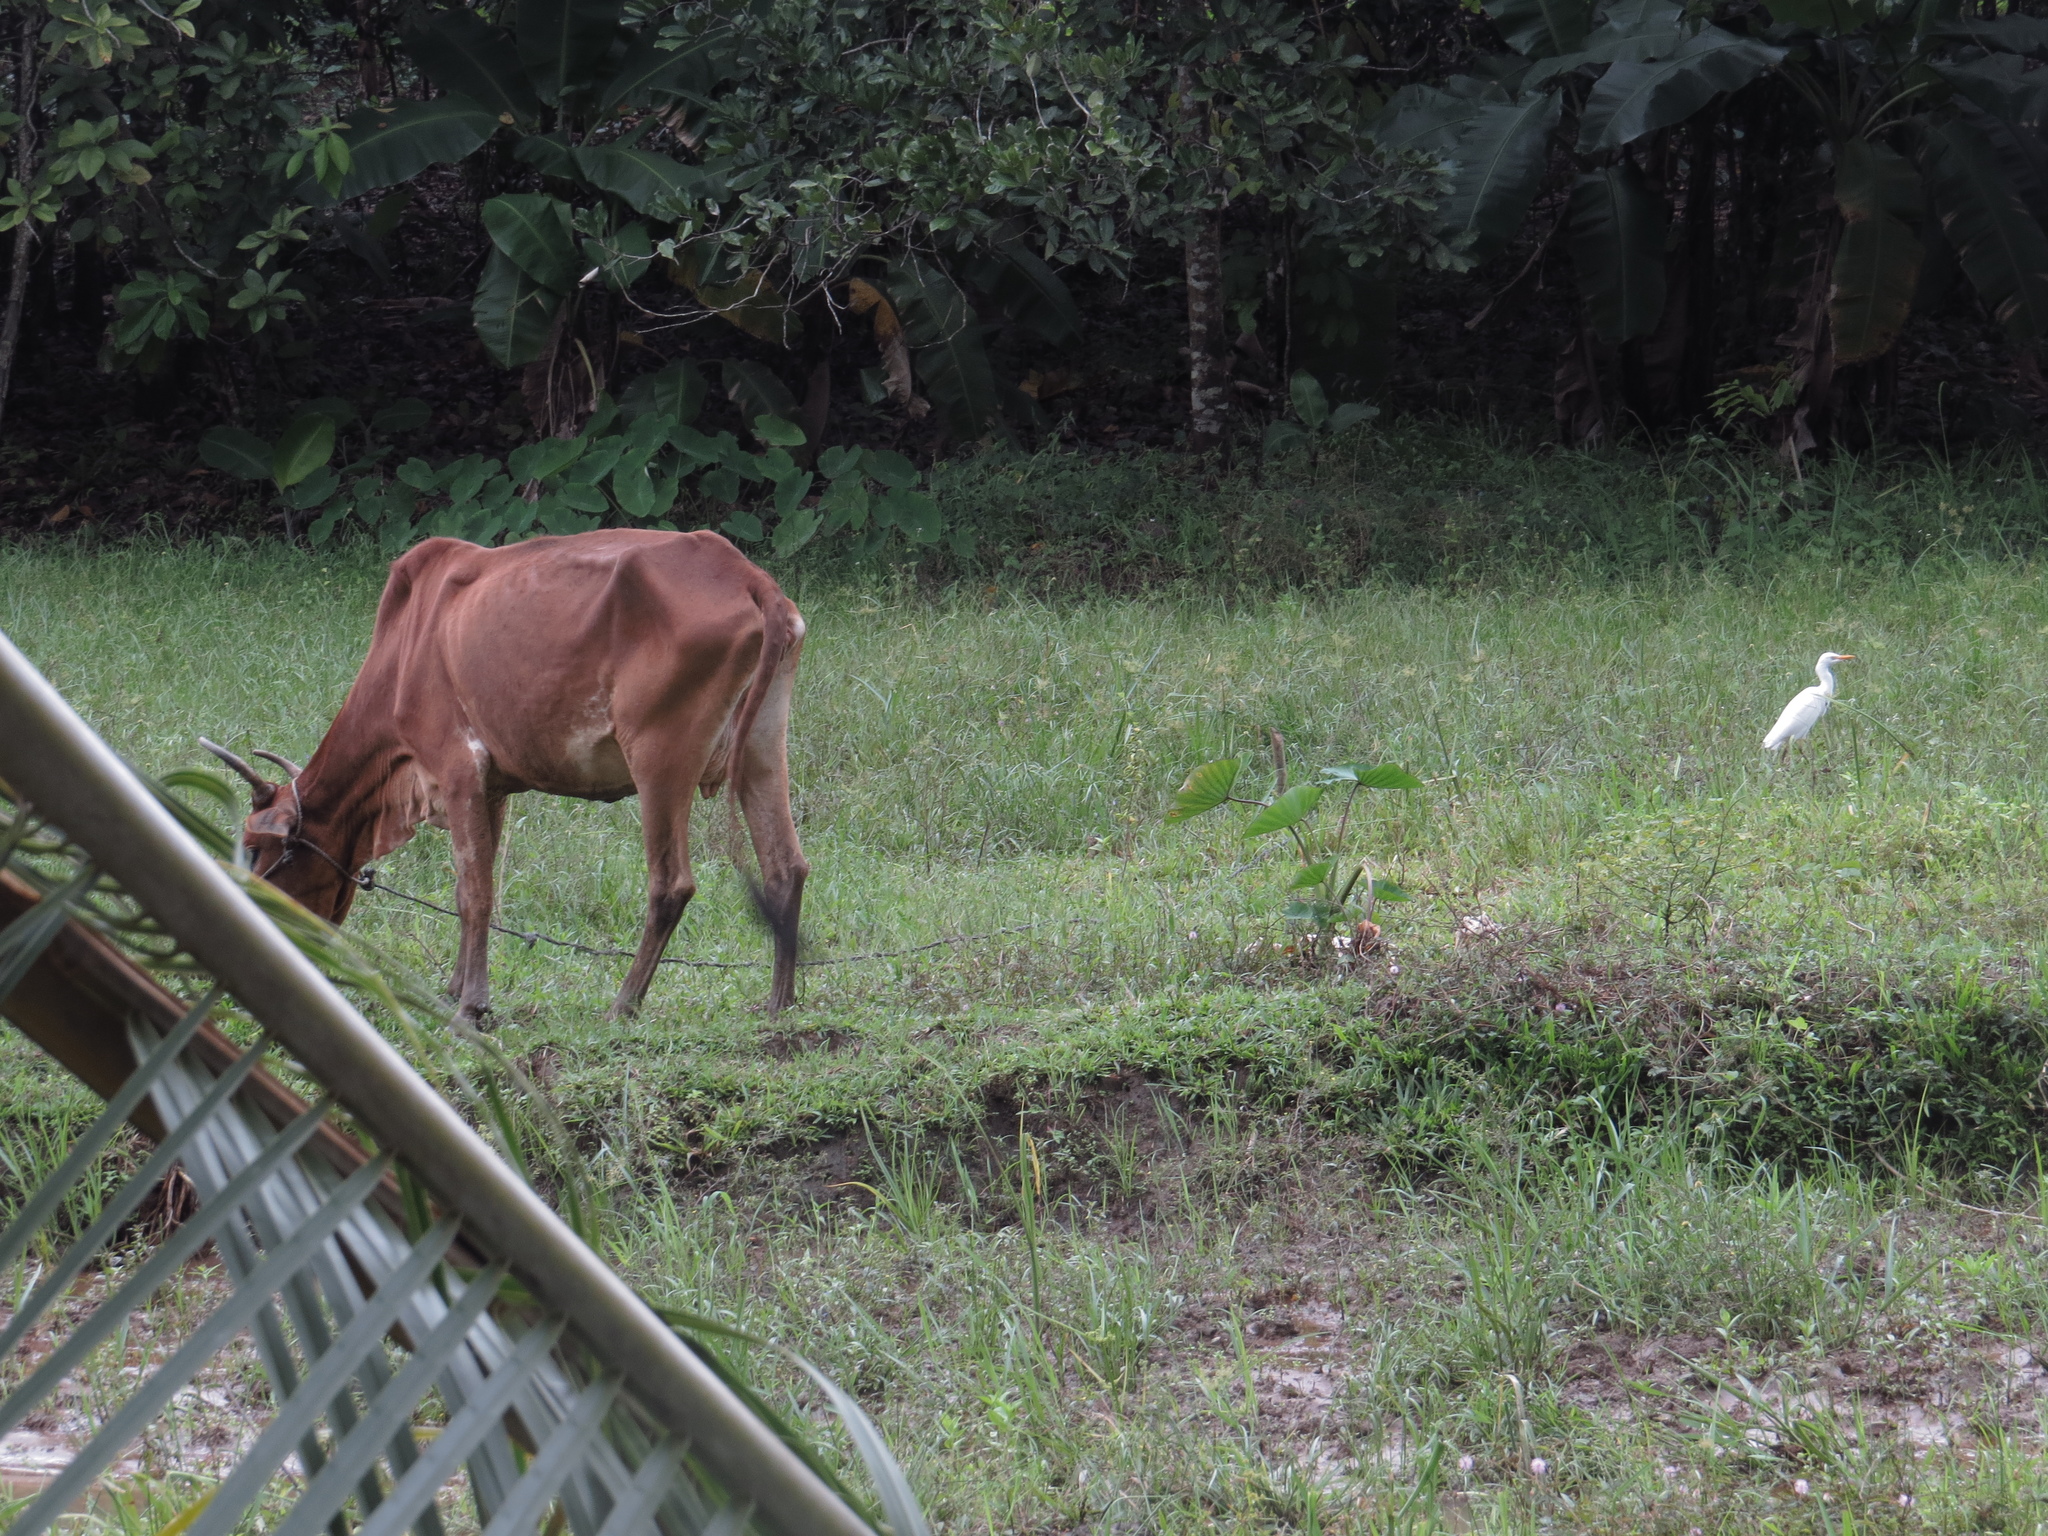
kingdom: Animalia
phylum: Chordata
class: Aves
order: Pelecaniformes
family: Ardeidae
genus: Bubulcus
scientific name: Bubulcus ibis
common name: Cattle egret
